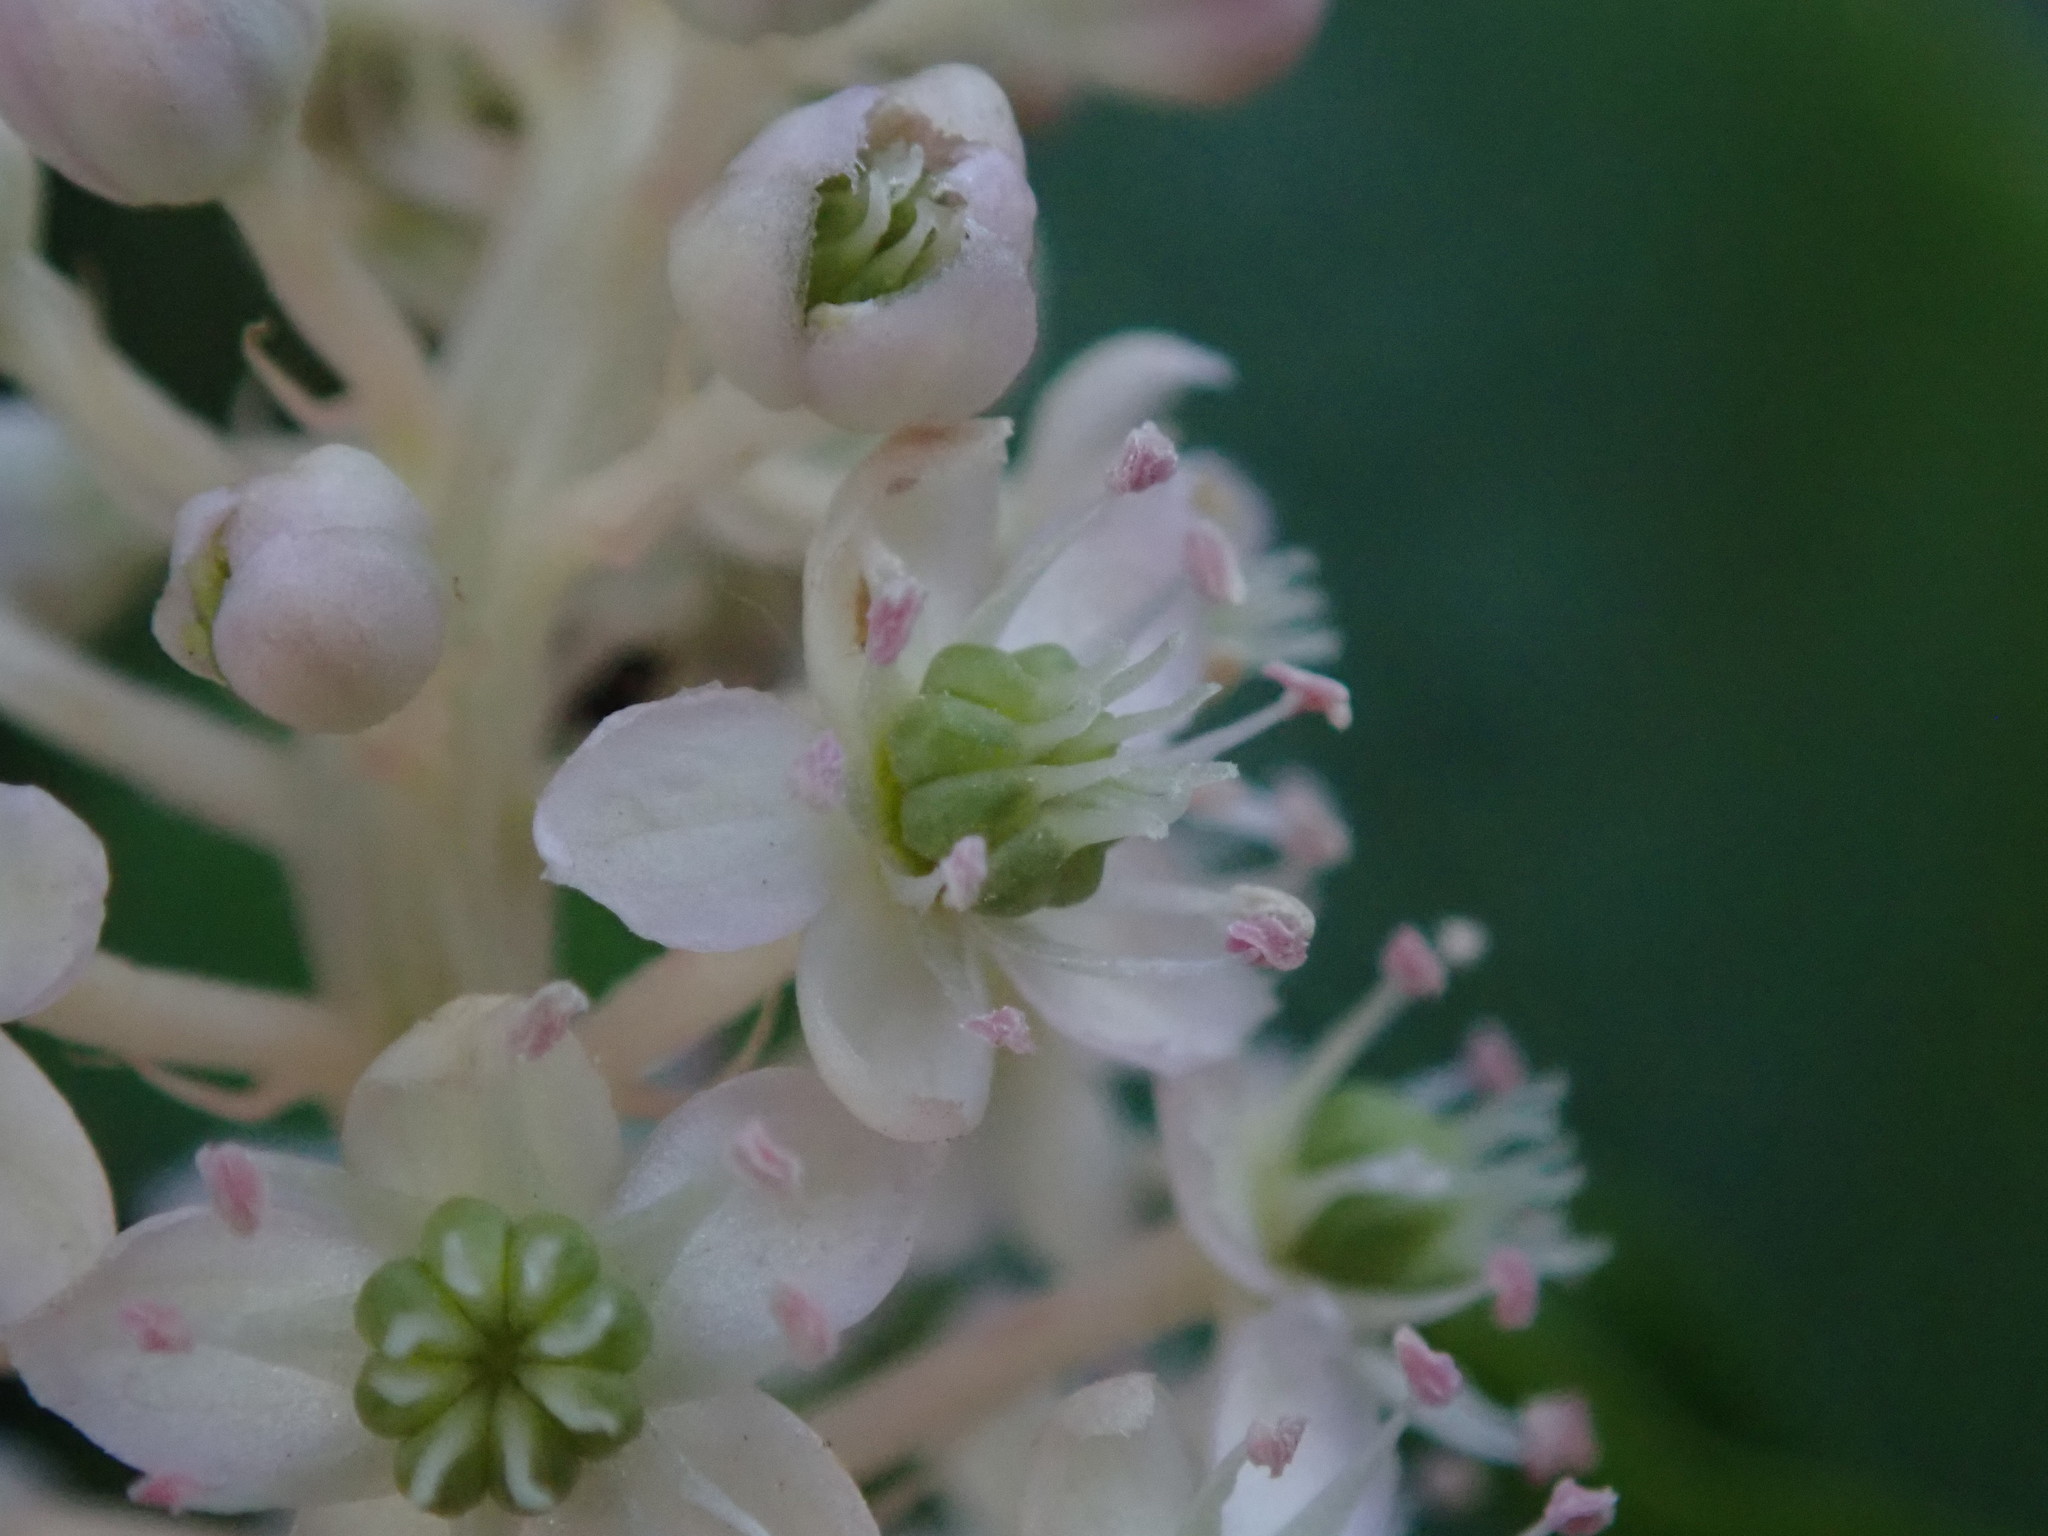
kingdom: Plantae
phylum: Tracheophyta
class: Magnoliopsida
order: Caryophyllales
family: Phytolaccaceae
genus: Phytolacca
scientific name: Phytolacca acinosa
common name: Indian pokeweed
